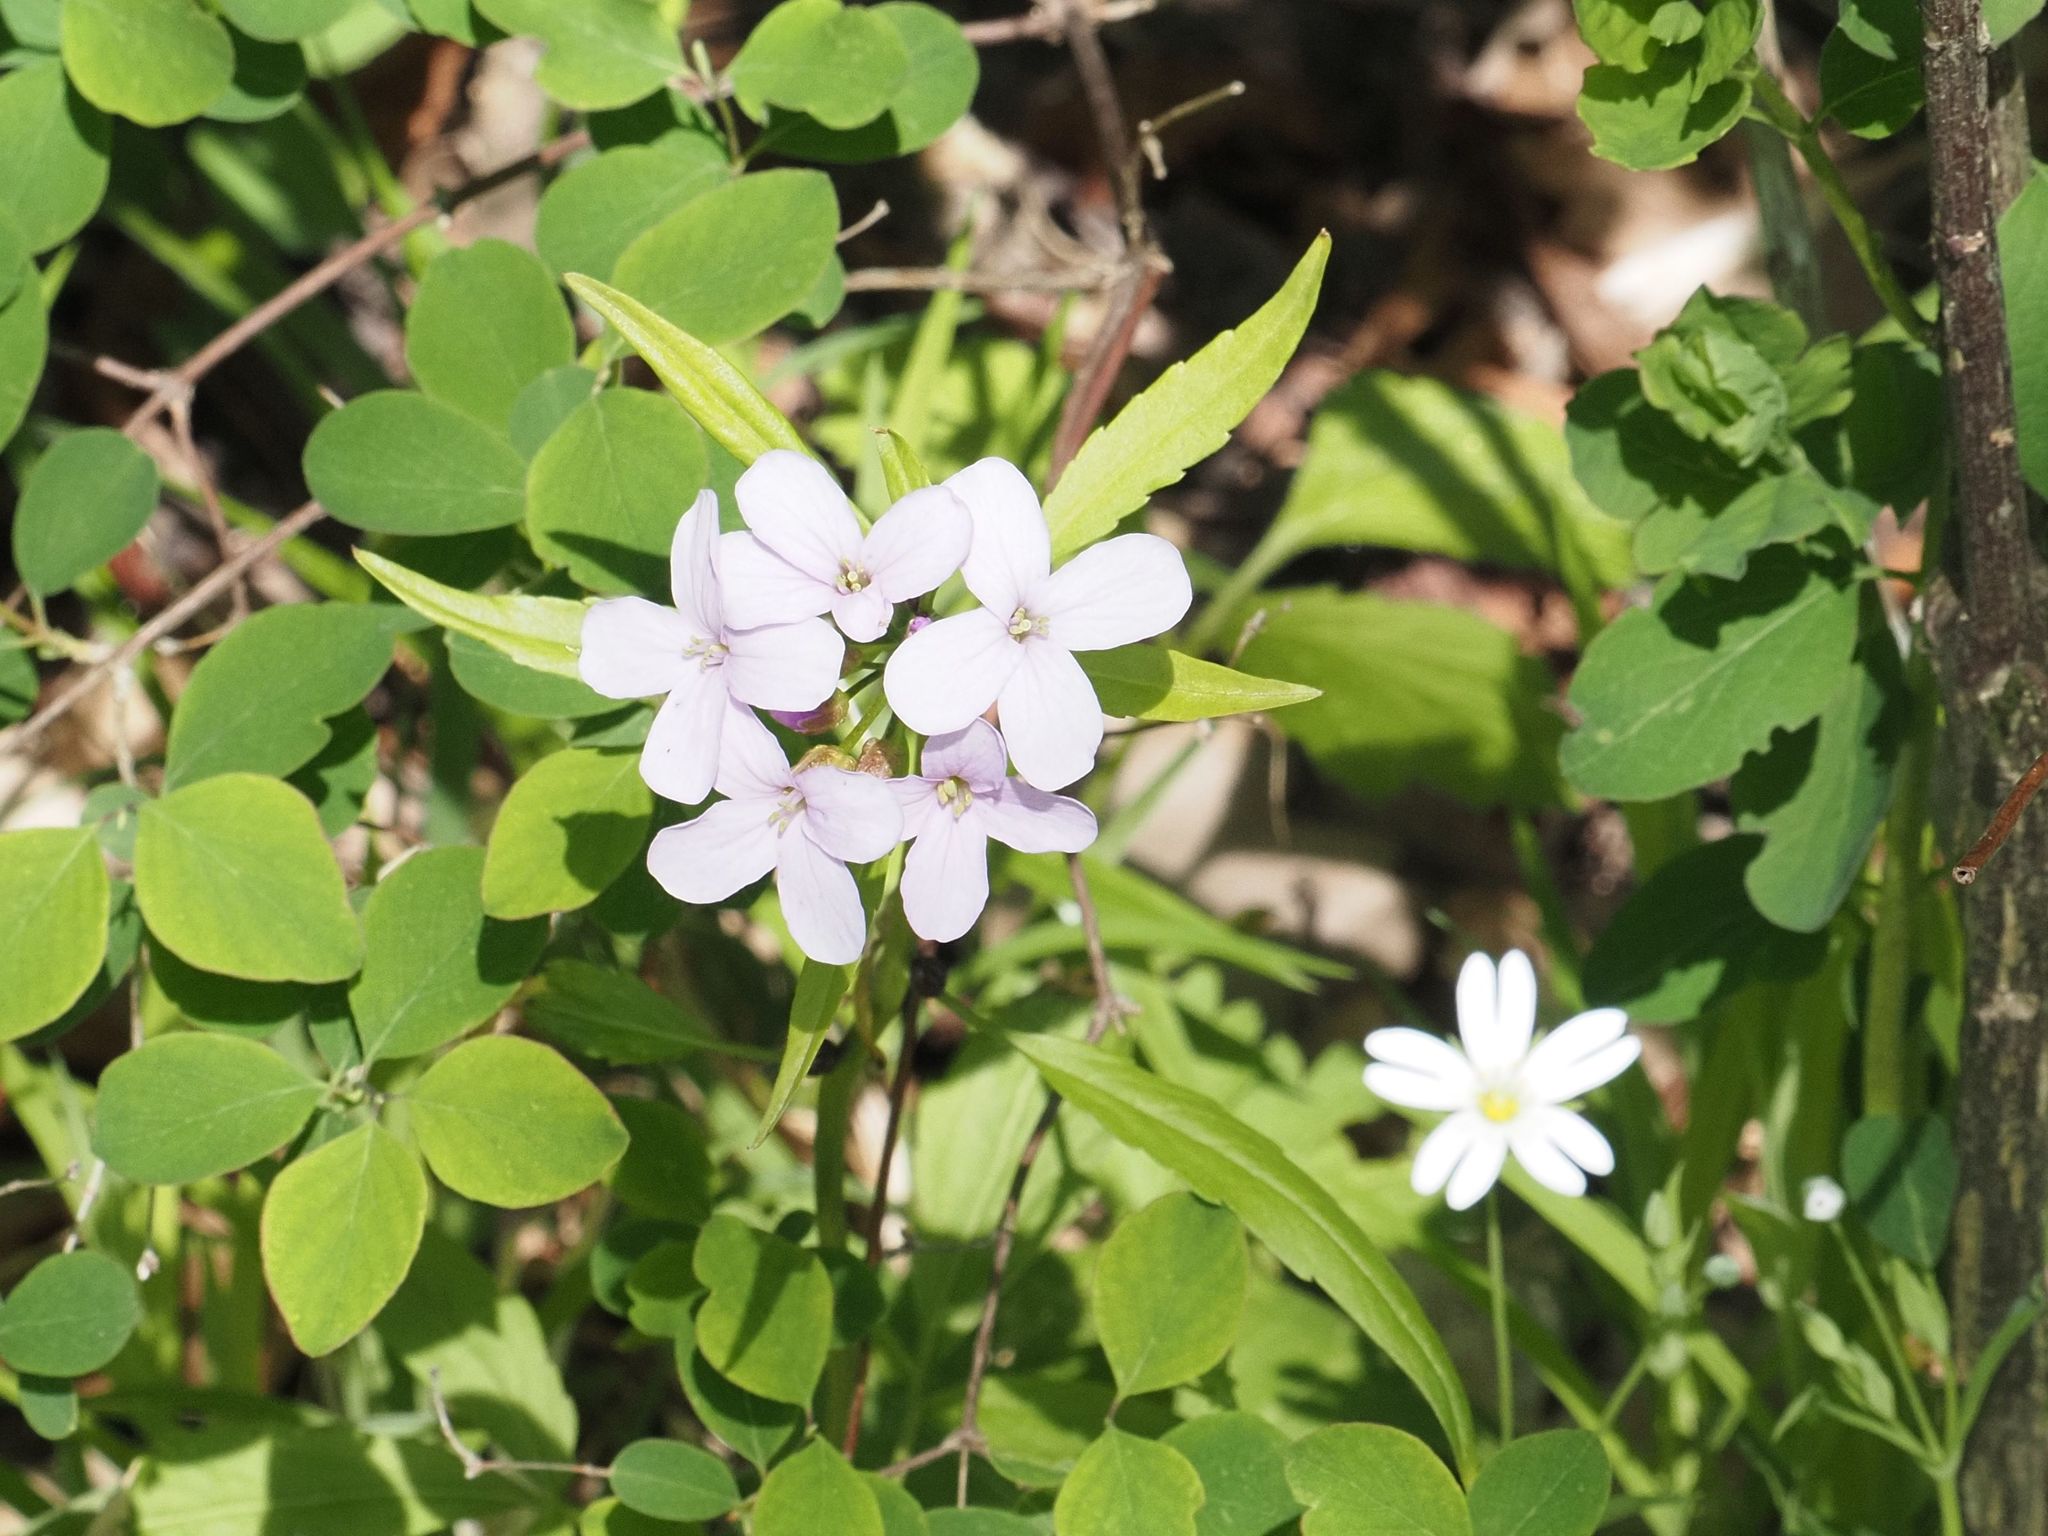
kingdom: Plantae
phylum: Tracheophyta
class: Magnoliopsida
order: Brassicales
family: Brassicaceae
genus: Cardamine
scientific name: Cardamine bulbifera
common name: Coralroot bittercress
